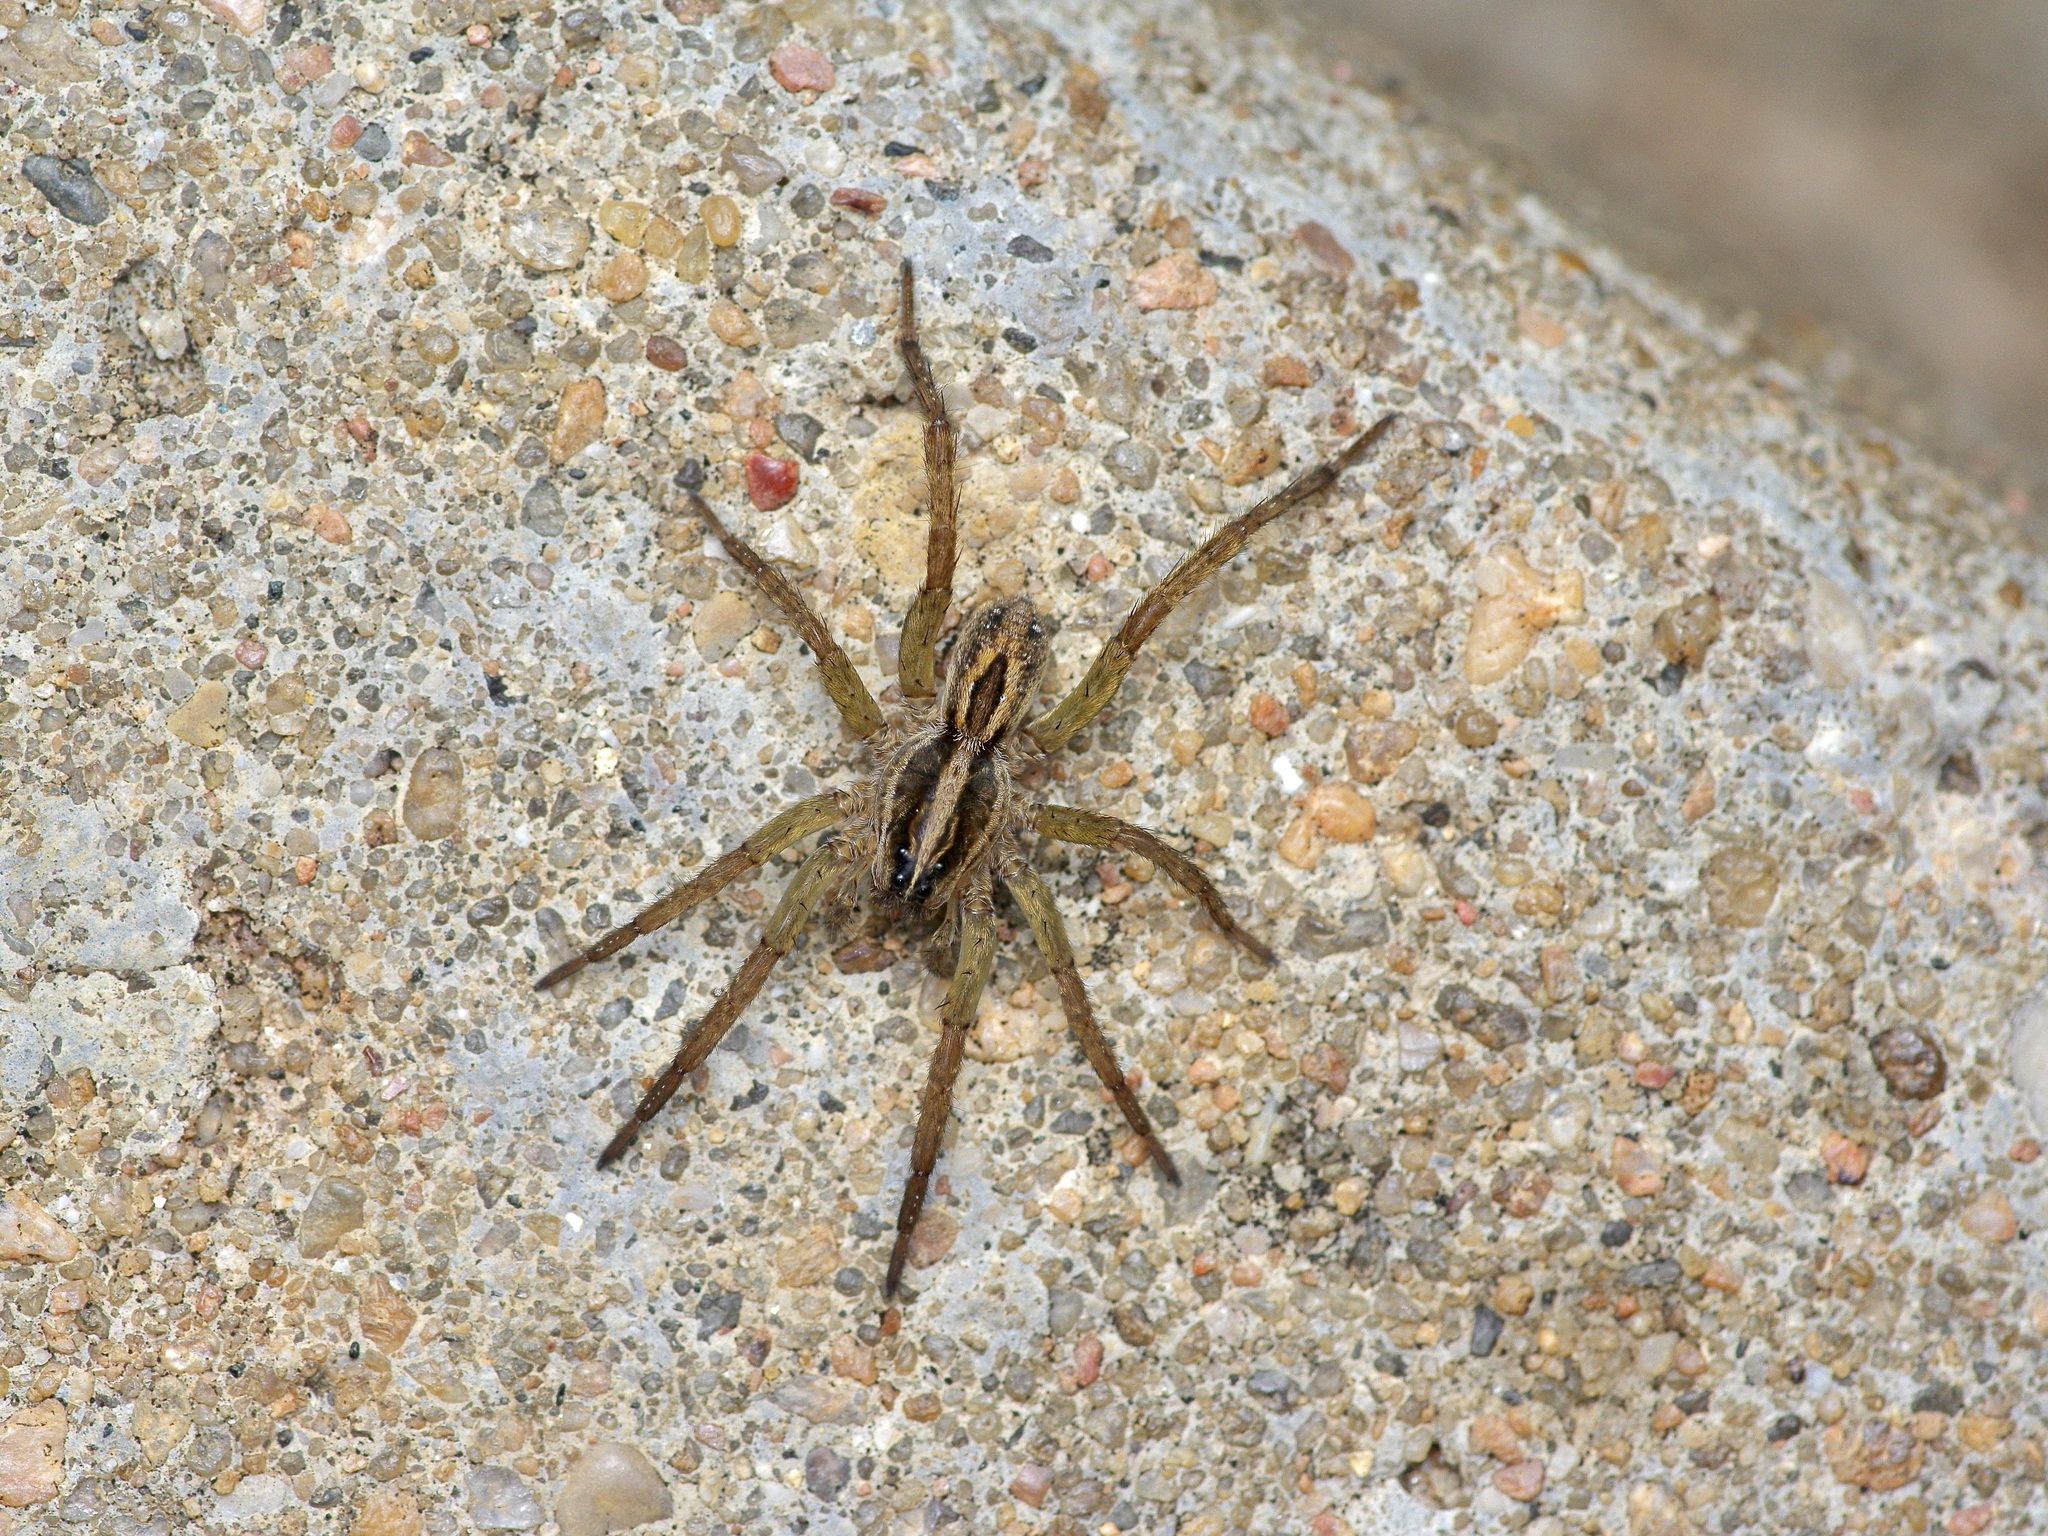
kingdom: Animalia
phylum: Arthropoda
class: Arachnida
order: Araneae
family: Lycosidae
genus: Tigrosa
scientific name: Tigrosa annexa
